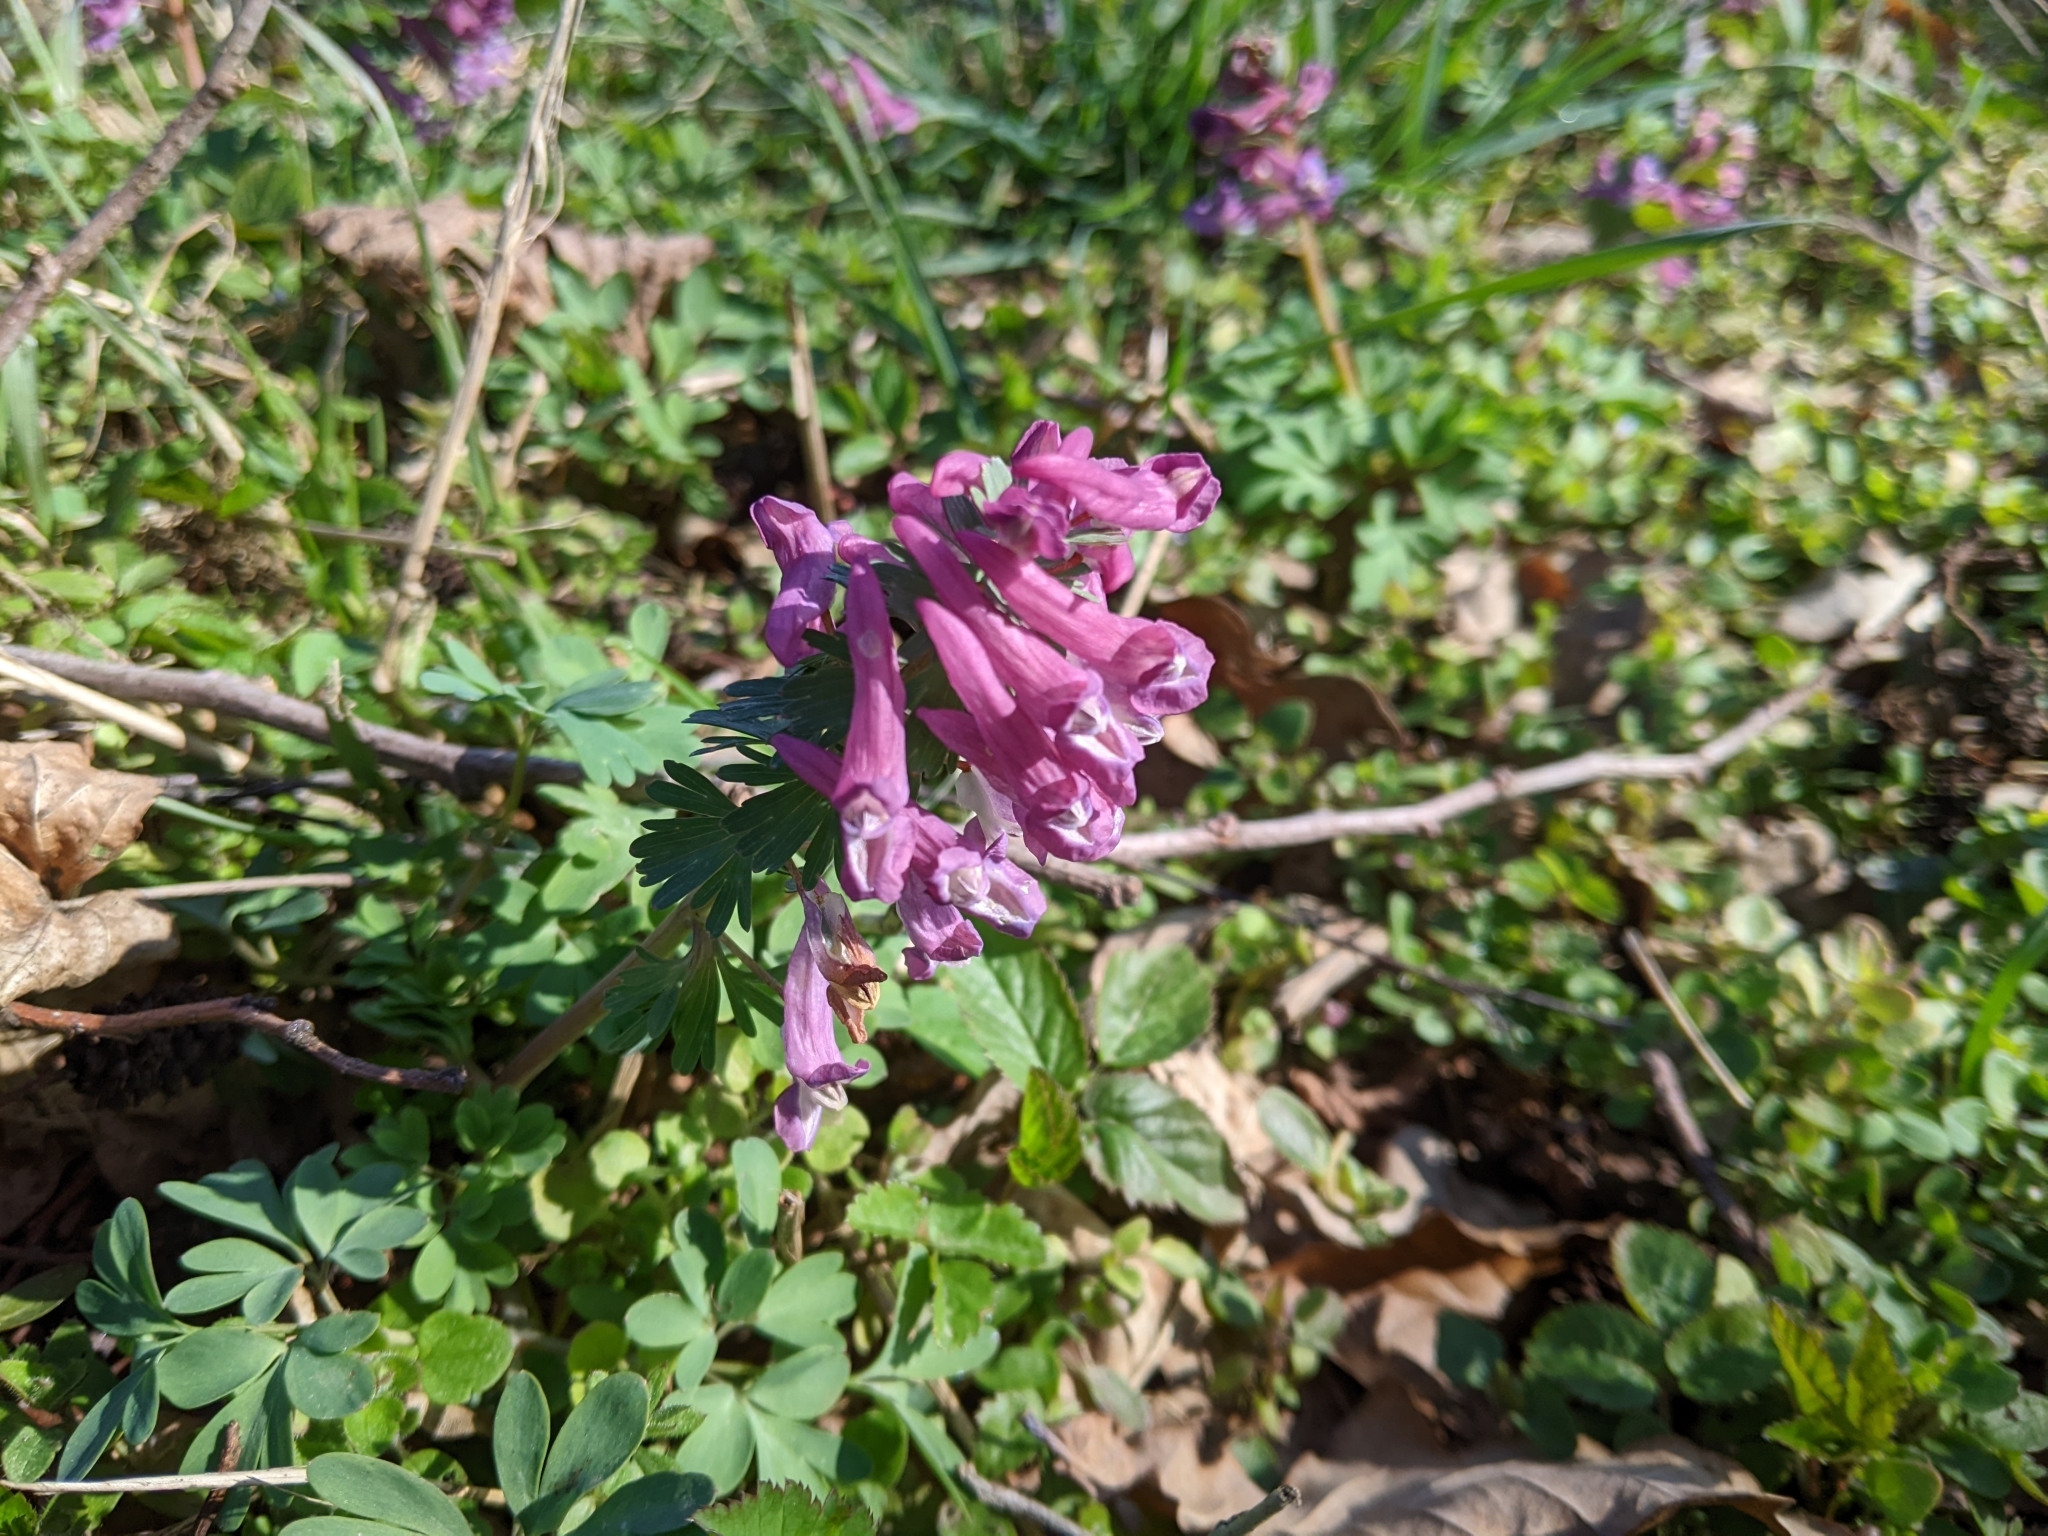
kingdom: Plantae
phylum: Tracheophyta
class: Magnoliopsida
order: Ranunculales
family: Papaveraceae
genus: Corydalis
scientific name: Corydalis solida
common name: Bird-in-a-bush
